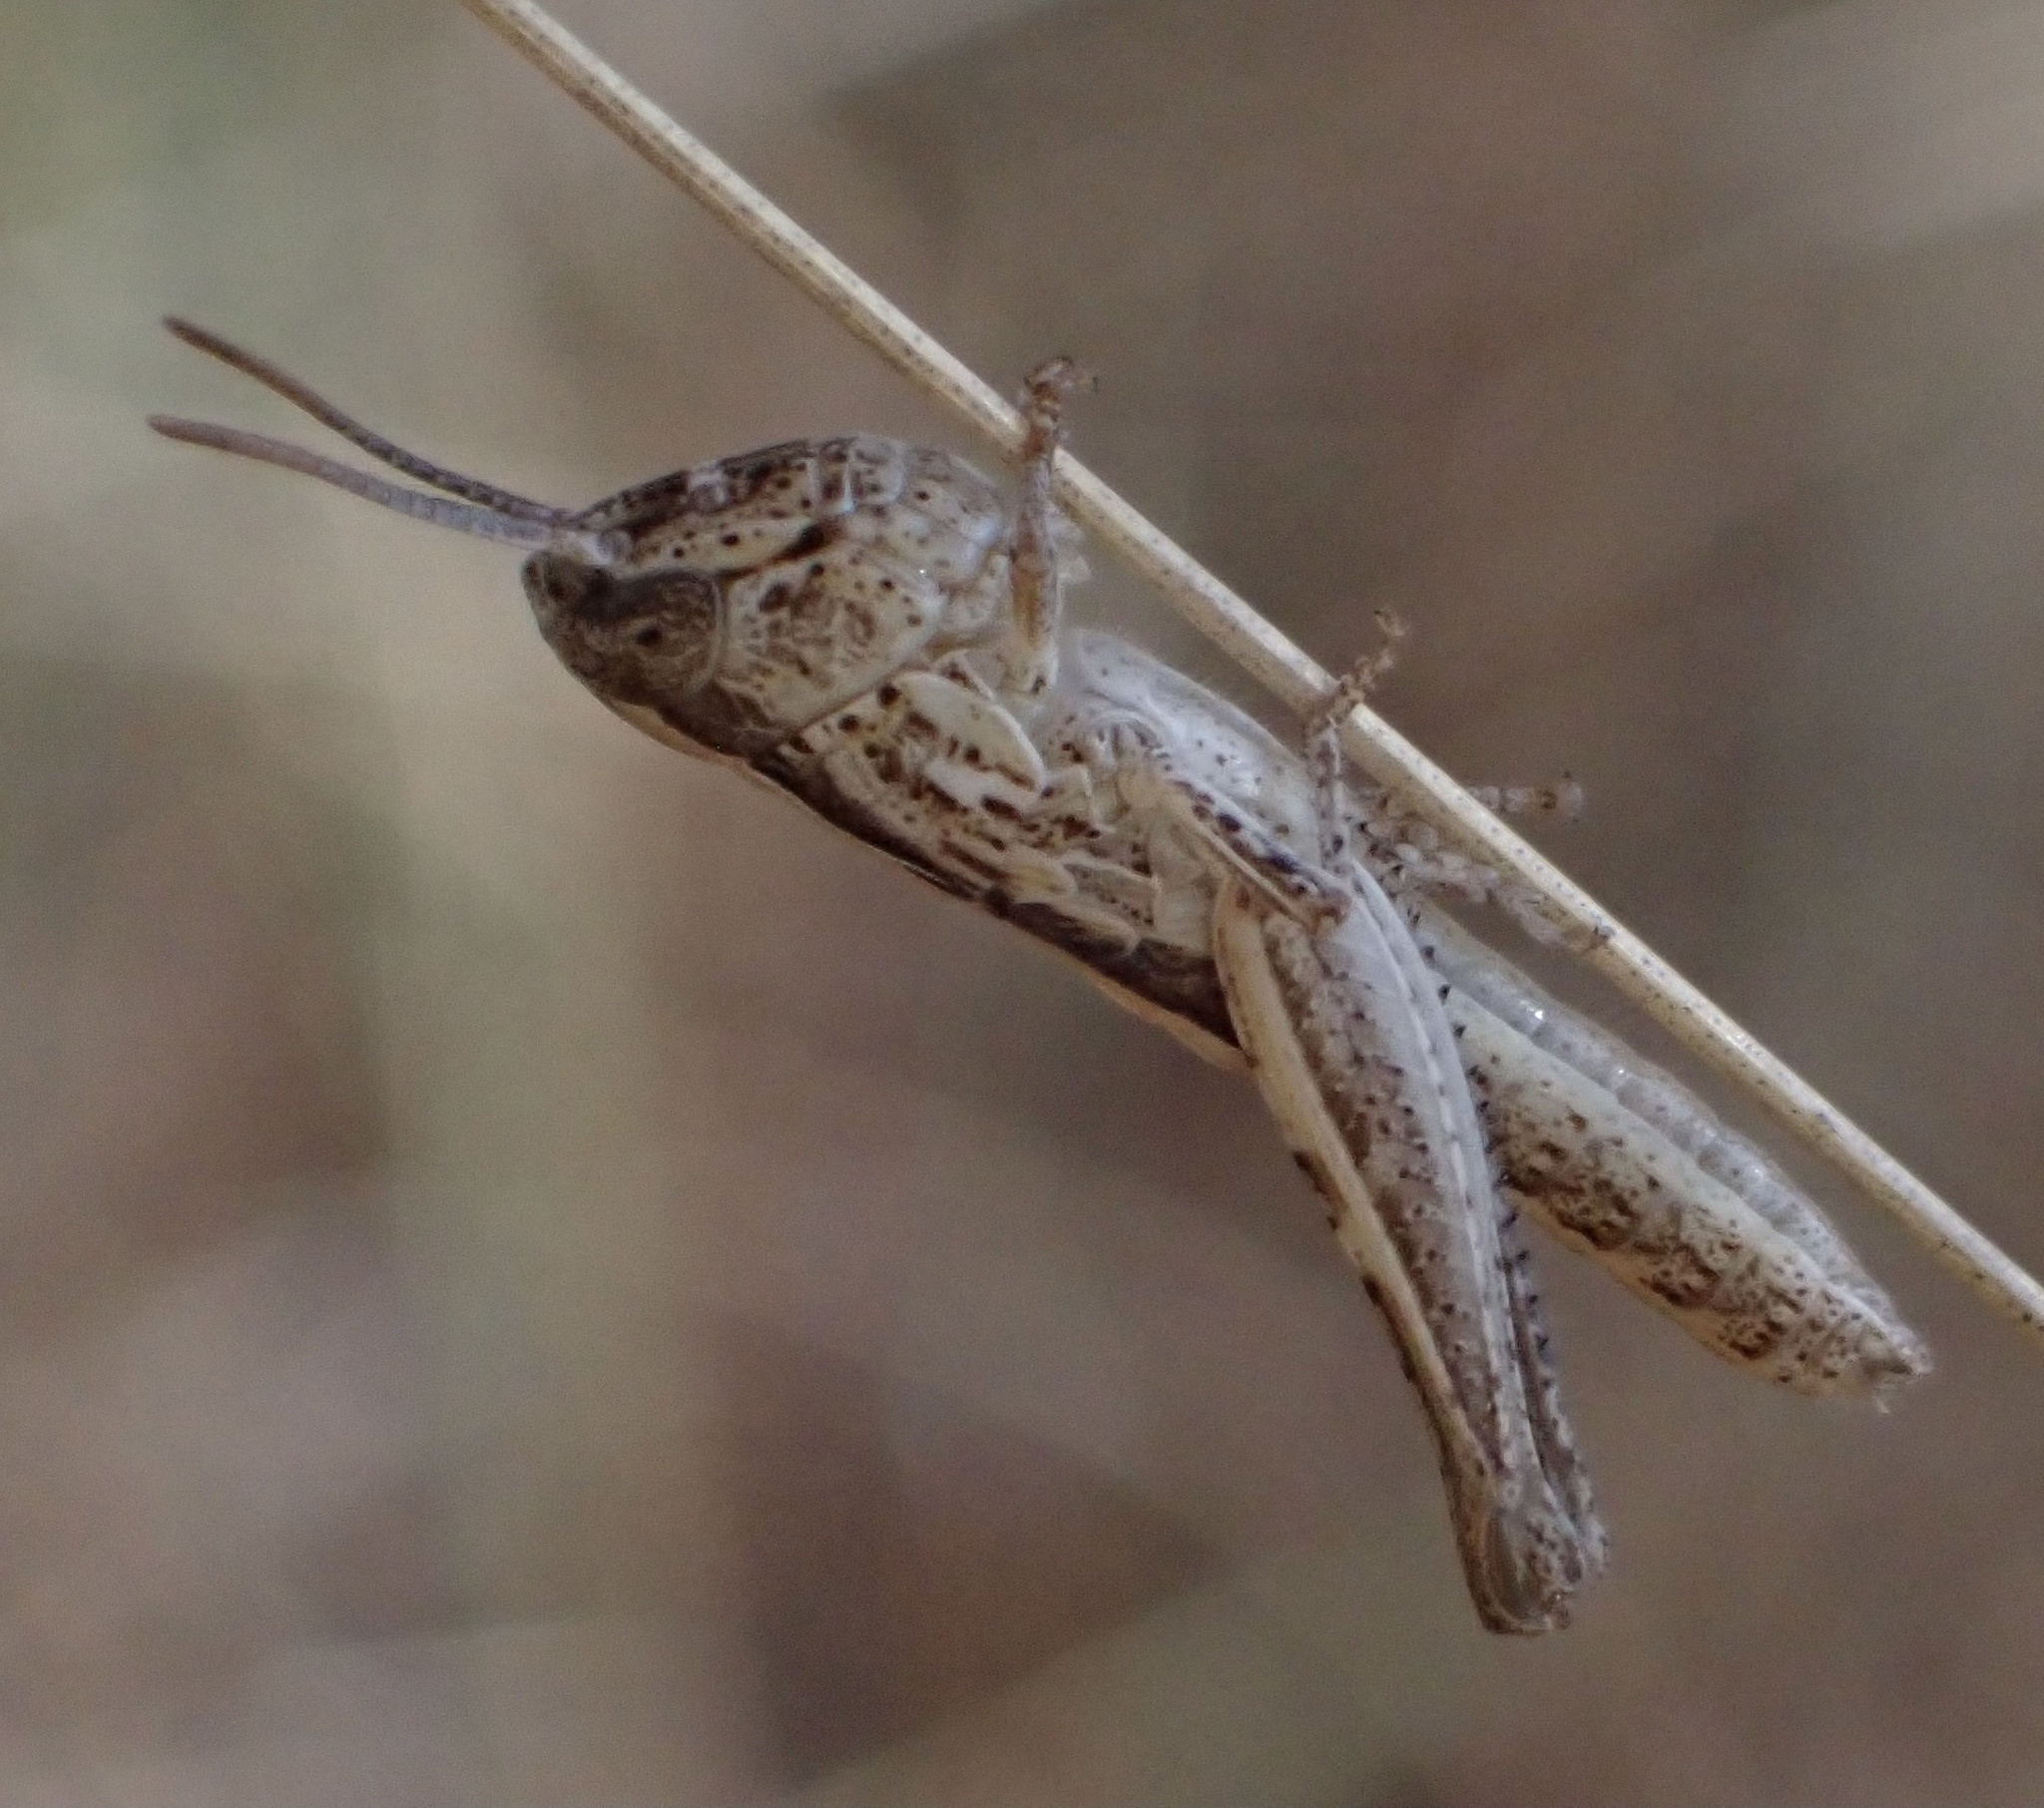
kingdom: Animalia
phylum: Arthropoda
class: Insecta
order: Orthoptera
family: Acrididae
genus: Euchorthippus
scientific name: Euchorthippus declivus
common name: Common straw grasshopper
